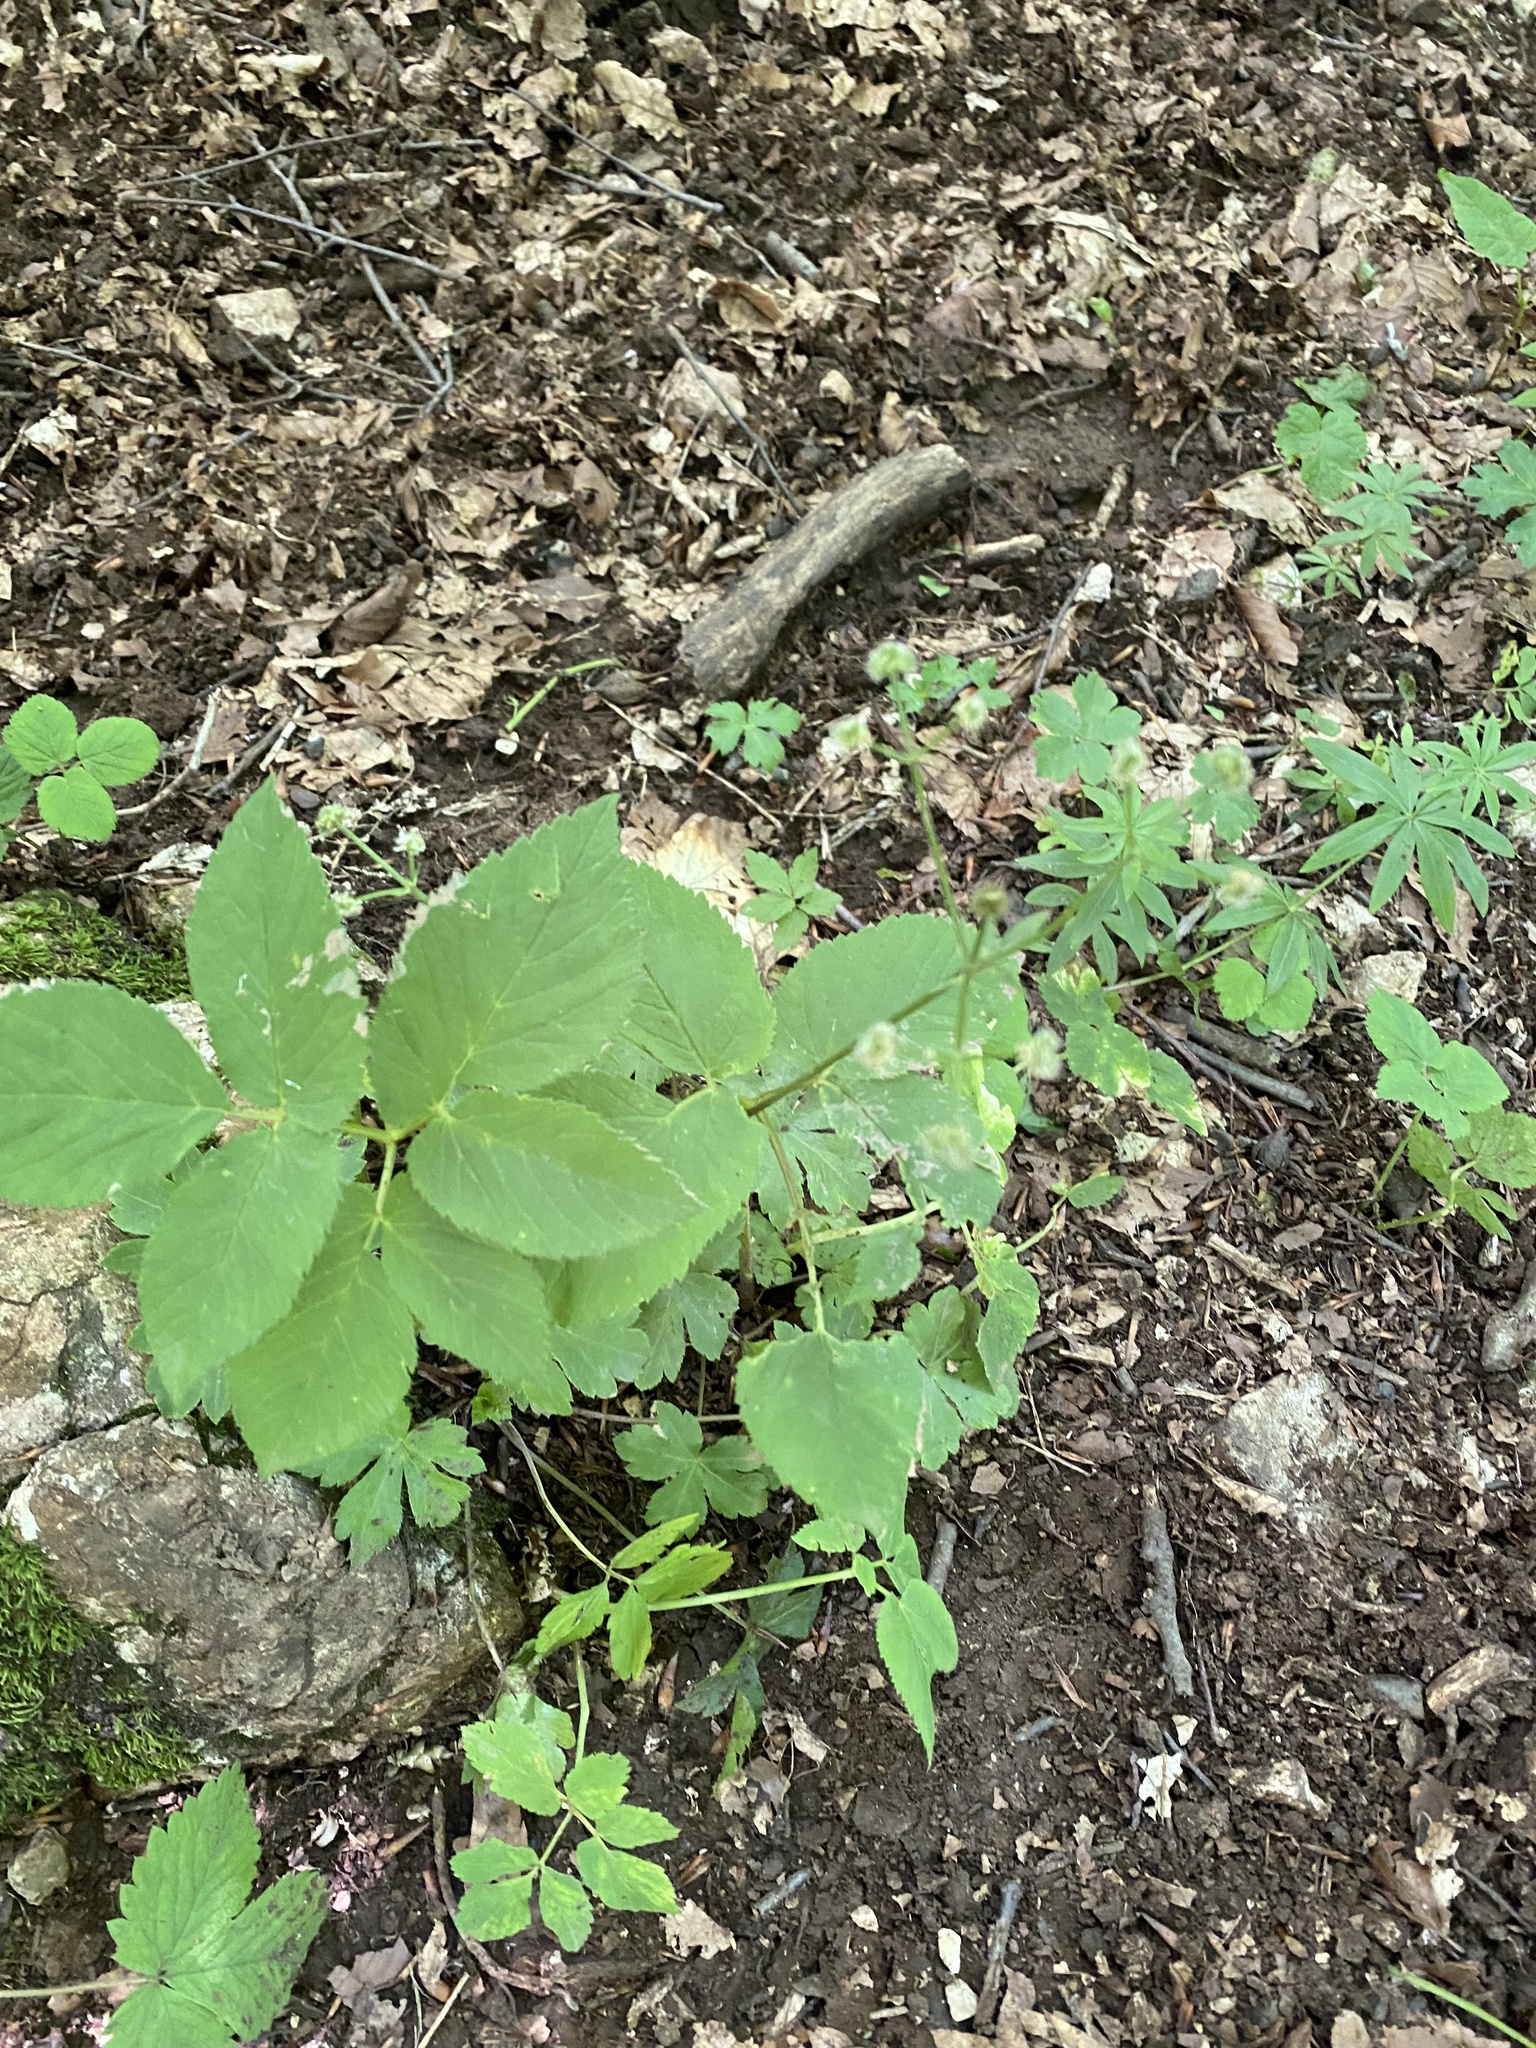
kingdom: Plantae
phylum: Tracheophyta
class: Magnoliopsida
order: Apiales
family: Apiaceae
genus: Aegopodium
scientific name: Aegopodium podagraria
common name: Ground-elder
